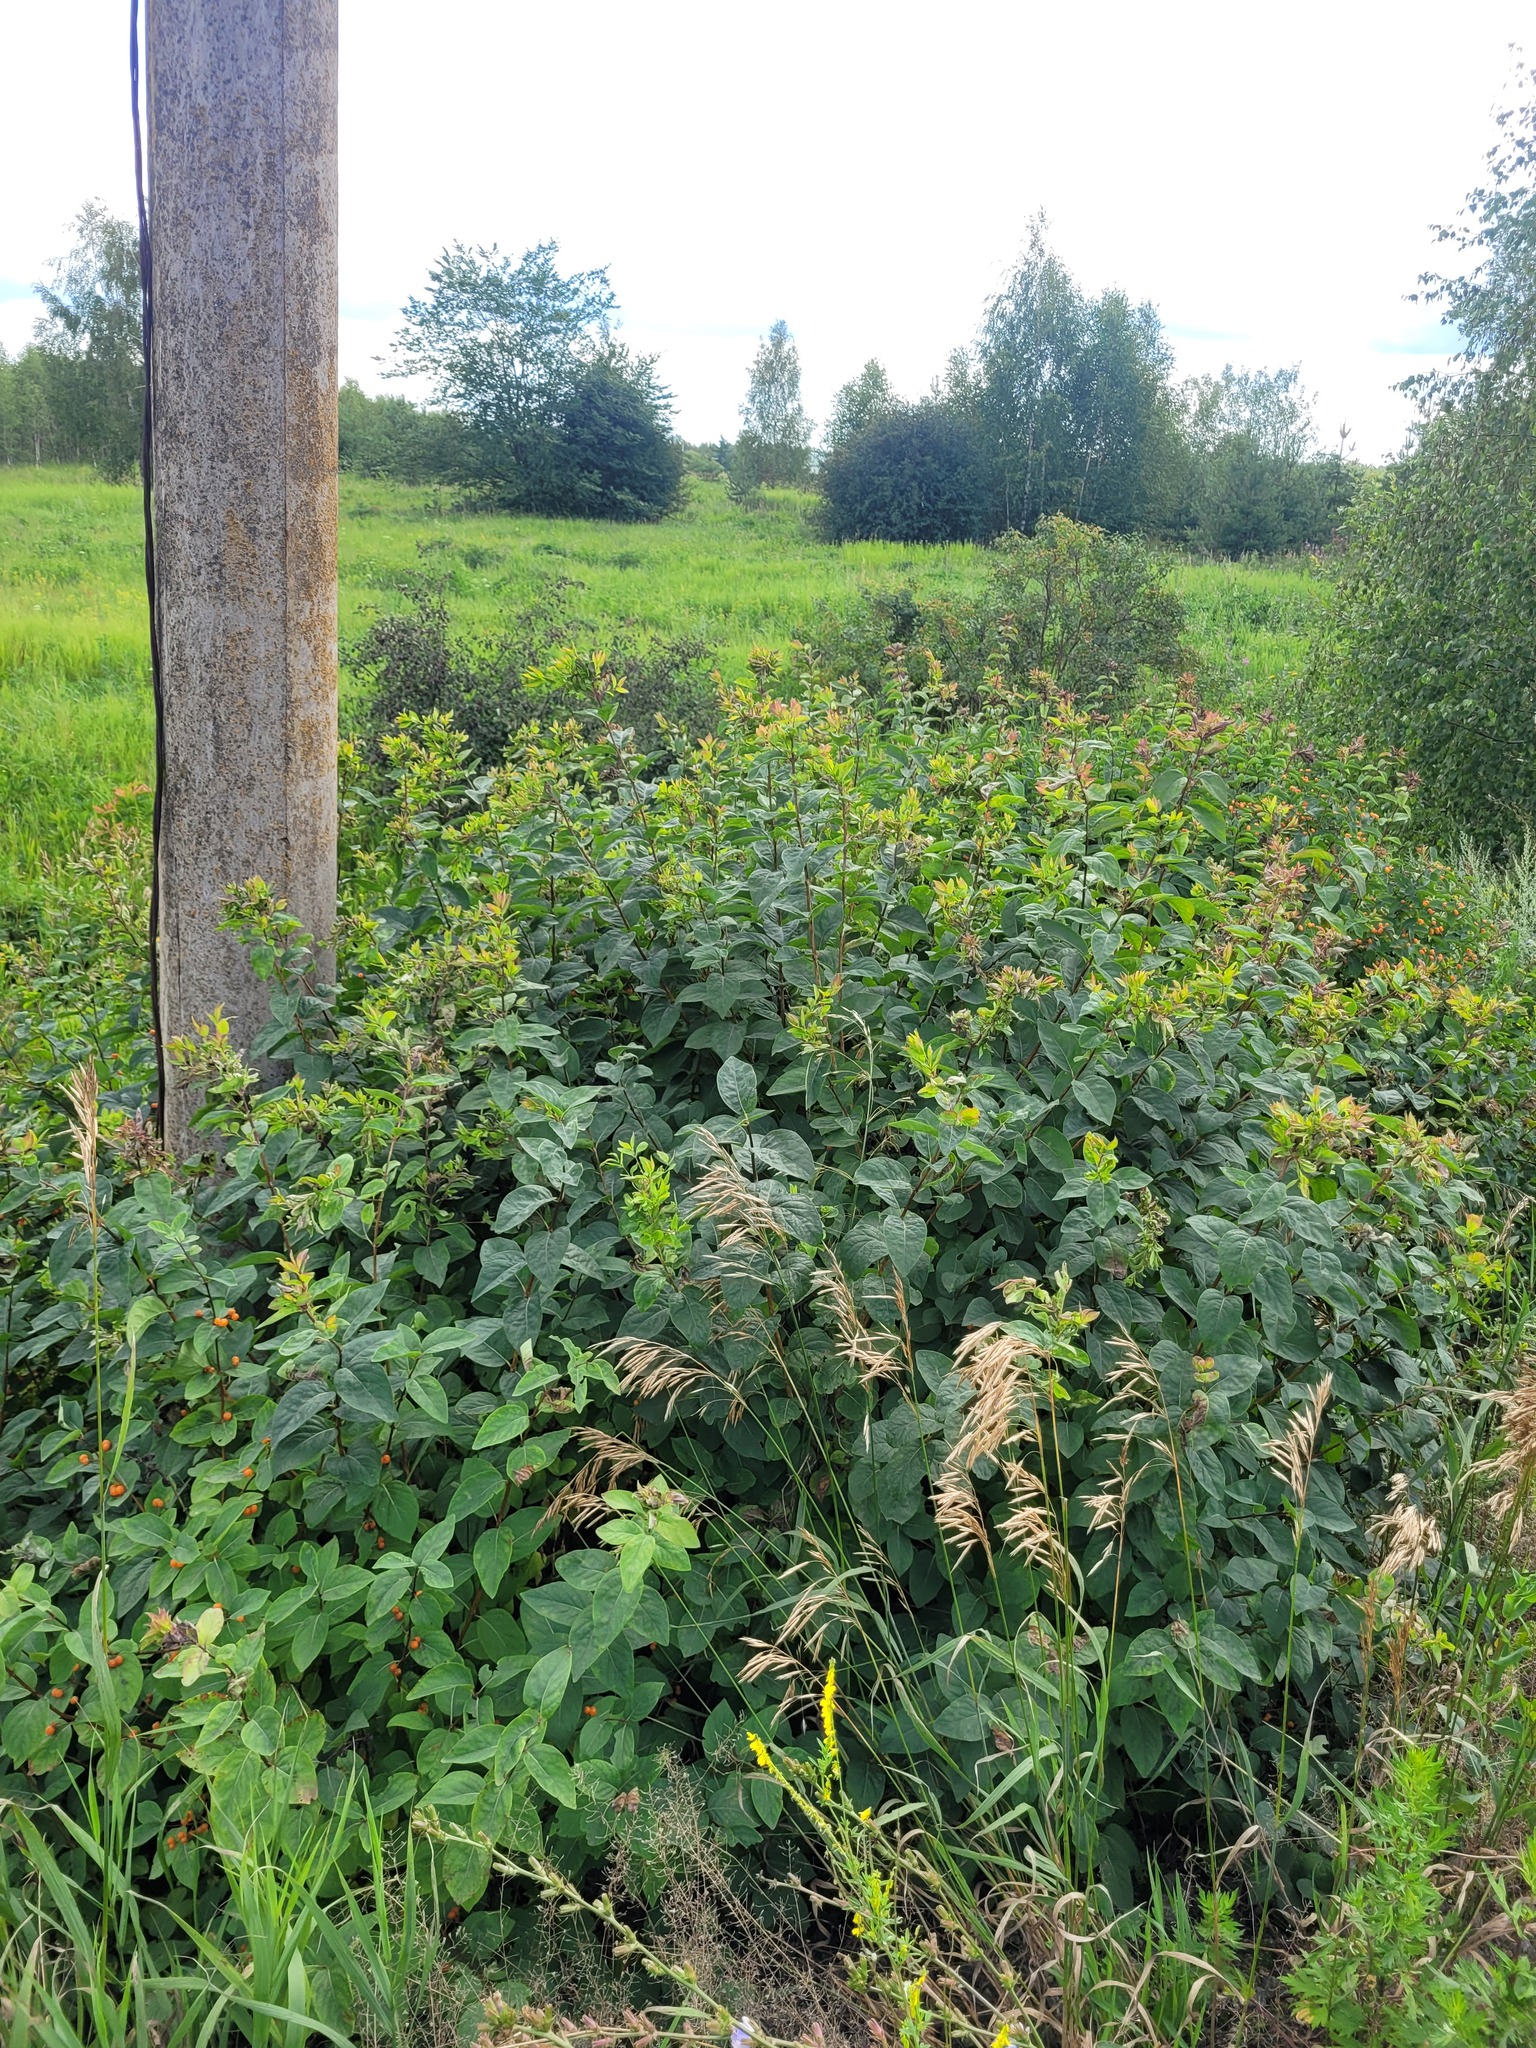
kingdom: Plantae
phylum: Tracheophyta
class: Magnoliopsida
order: Dipsacales
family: Caprifoliaceae
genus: Lonicera
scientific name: Lonicera tatarica
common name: Tatarian honeysuckle
